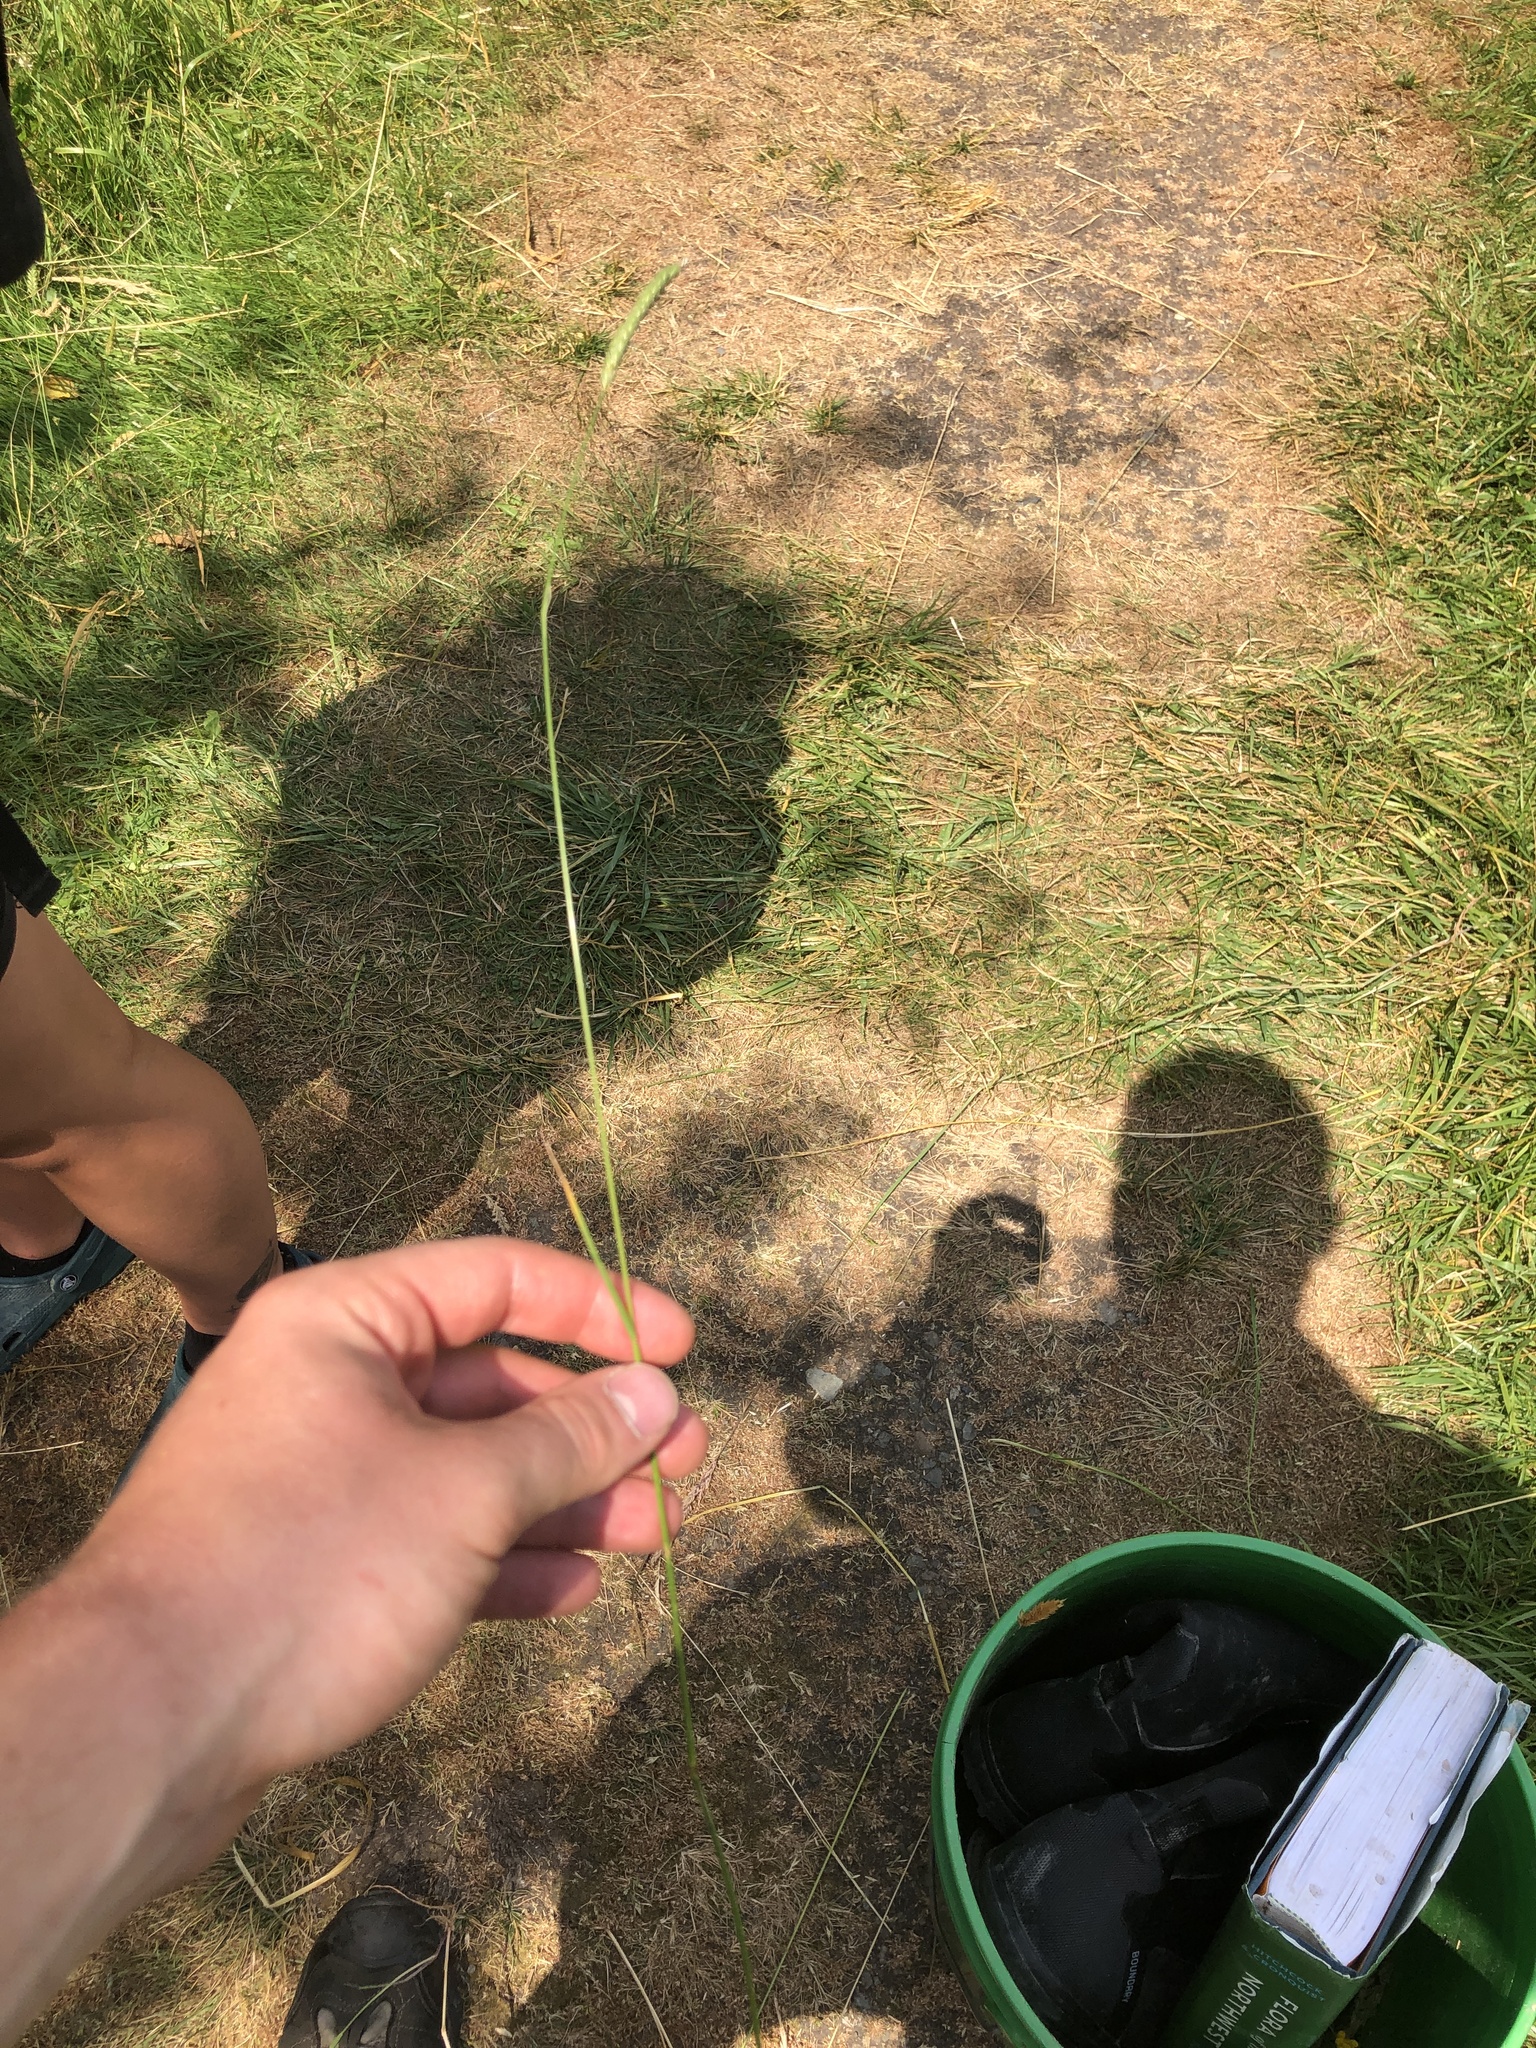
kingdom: Plantae
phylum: Tracheophyta
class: Liliopsida
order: Poales
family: Poaceae
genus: Cynosurus
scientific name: Cynosurus cristatus
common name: Crested dog's-tail
